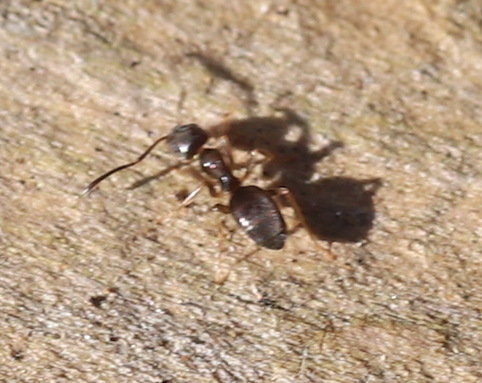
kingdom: Animalia
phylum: Arthropoda
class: Insecta
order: Hymenoptera
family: Formicidae
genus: Tapinoma
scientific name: Tapinoma sessile
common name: Odorous house ant
